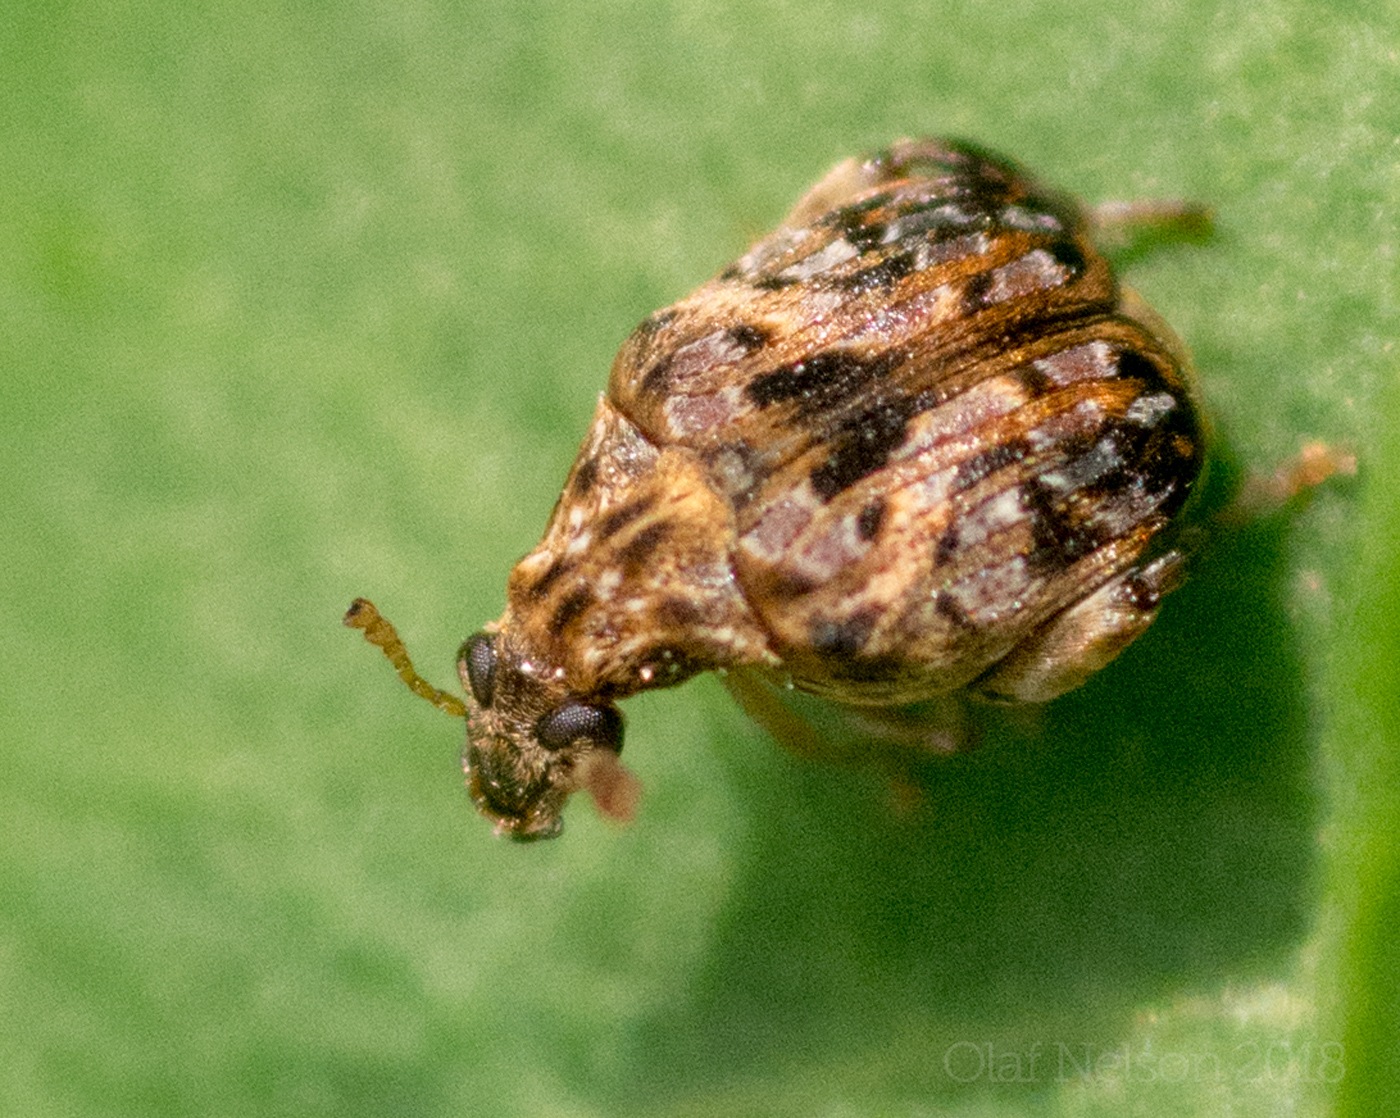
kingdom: Animalia
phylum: Arthropoda
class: Insecta
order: Coleoptera
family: Chrysomelidae
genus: Gibbobruchus
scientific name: Gibbobruchus mimus
